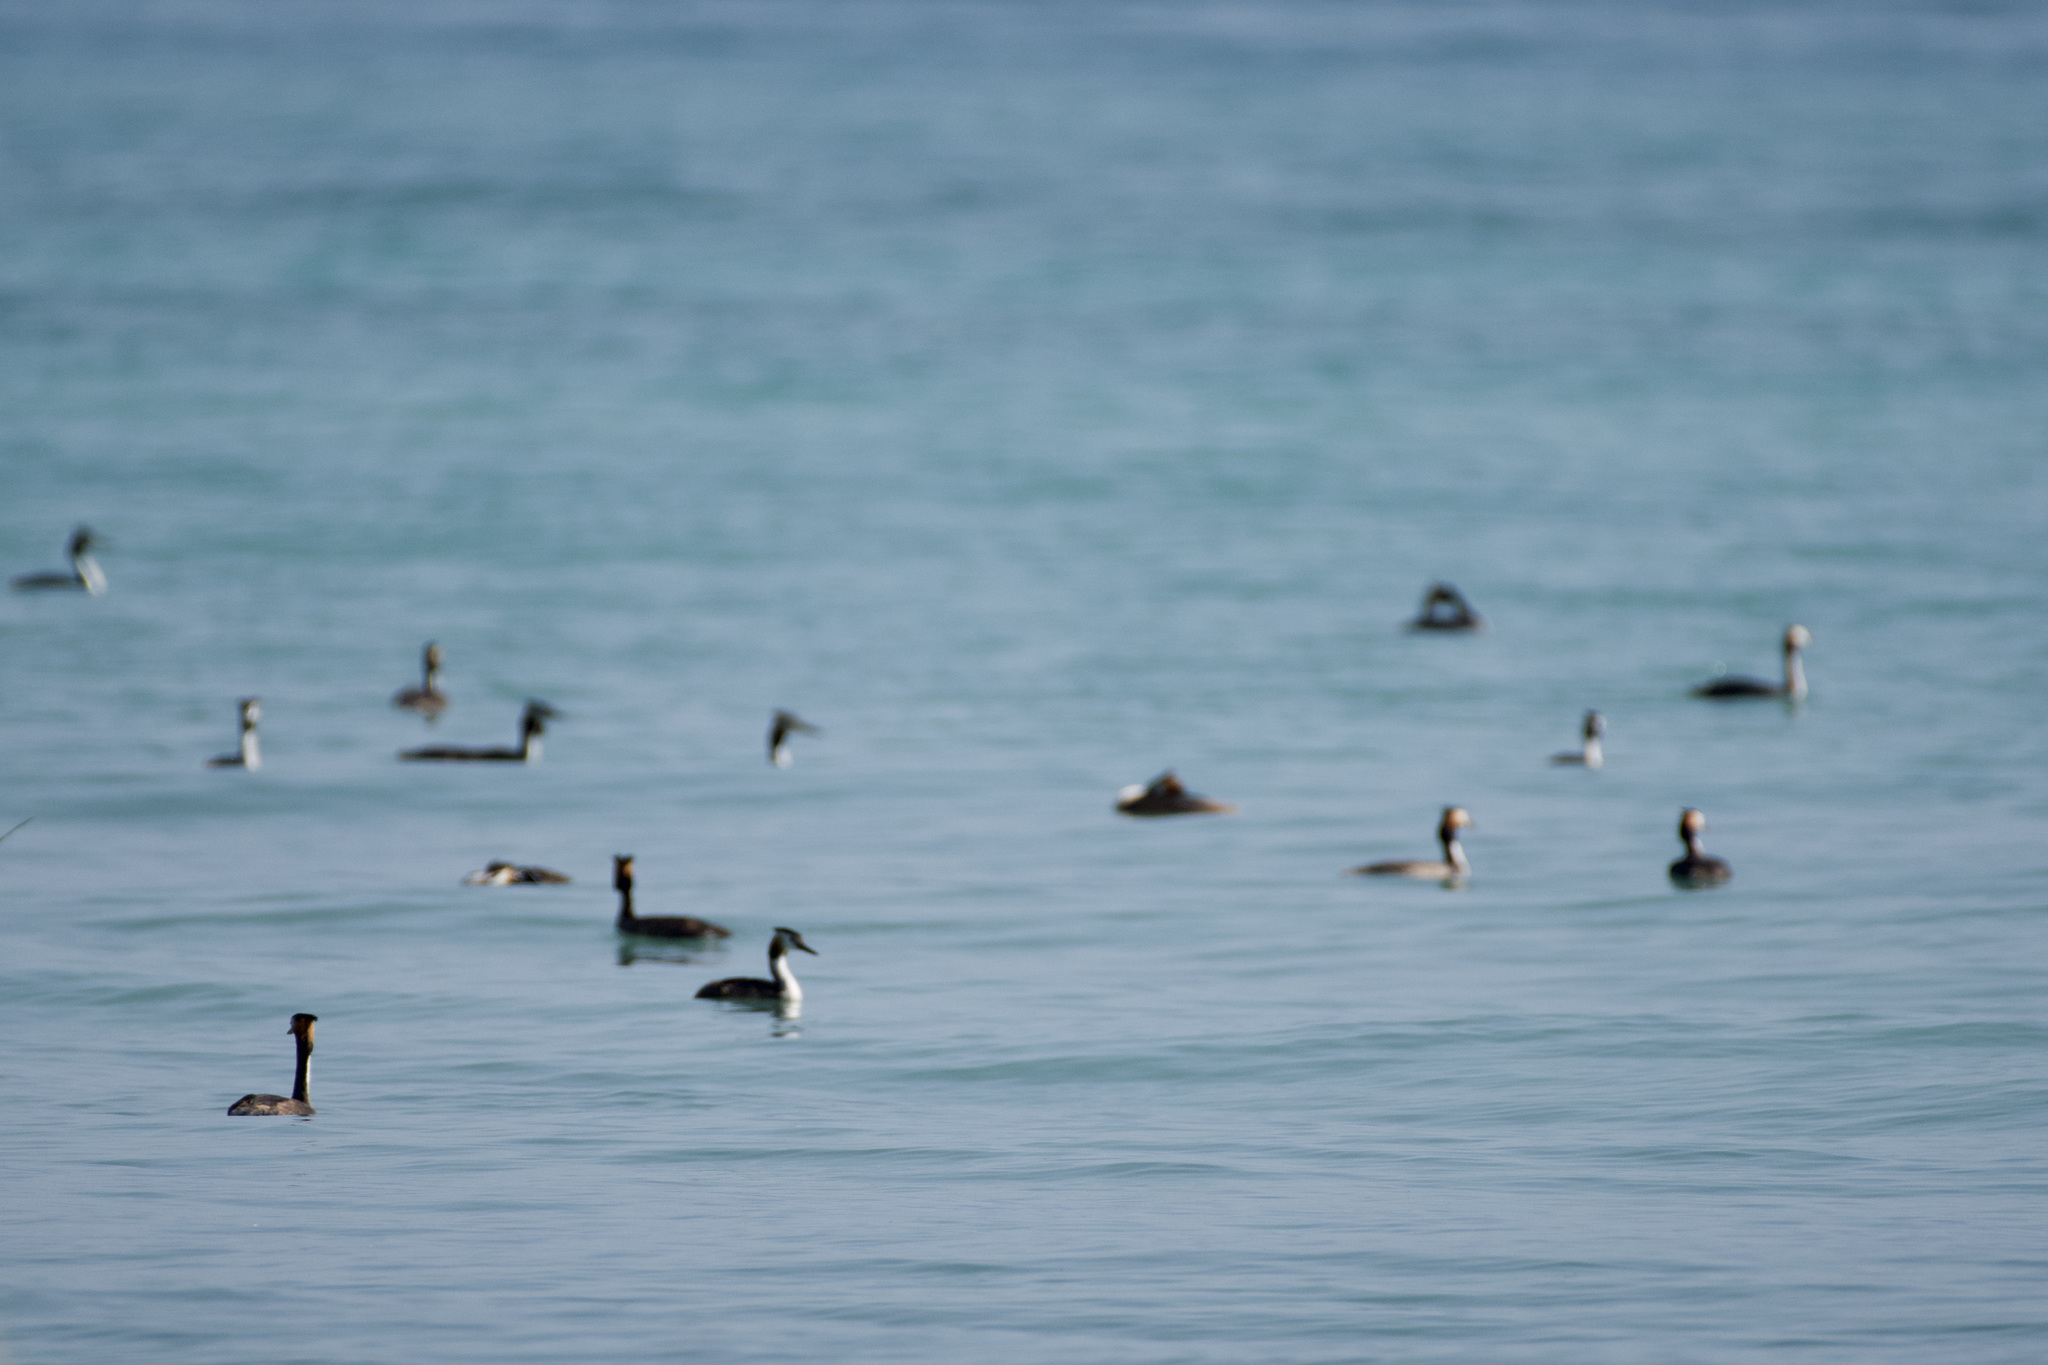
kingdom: Animalia
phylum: Chordata
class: Aves
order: Podicipediformes
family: Podicipedidae
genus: Podiceps
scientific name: Podiceps cristatus
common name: Great crested grebe
